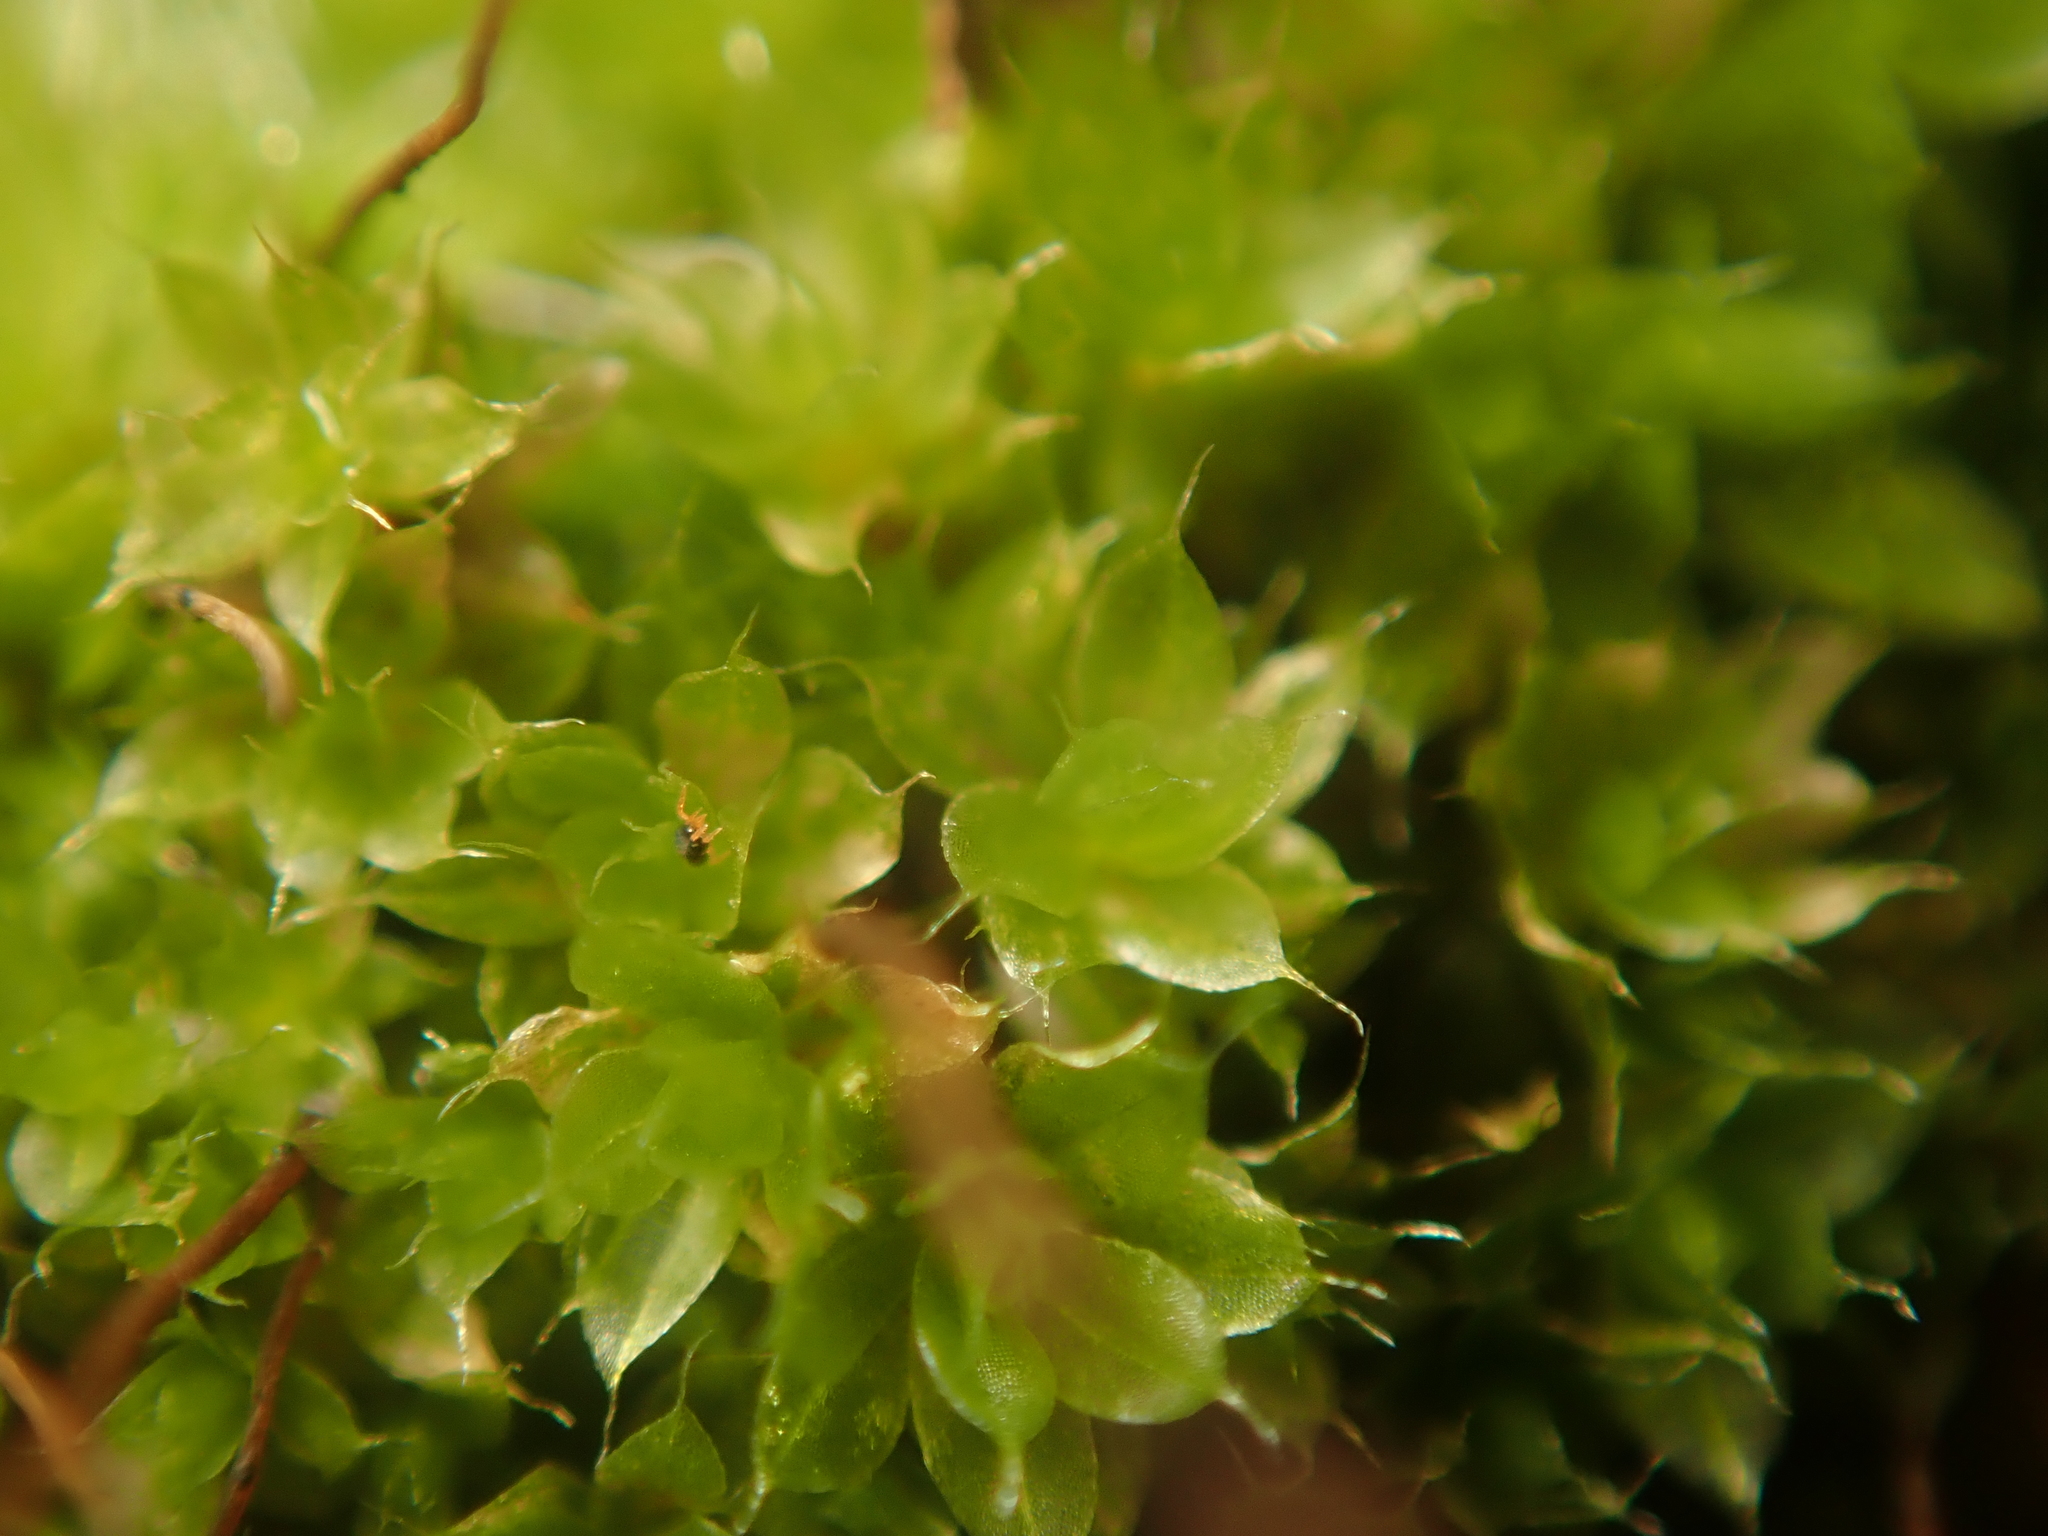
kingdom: Plantae
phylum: Bryophyta
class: Bryopsida
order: Bryales
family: Bryaceae
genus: Rosulabryum
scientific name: Rosulabryum capillare
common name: Capillary thread-moss
